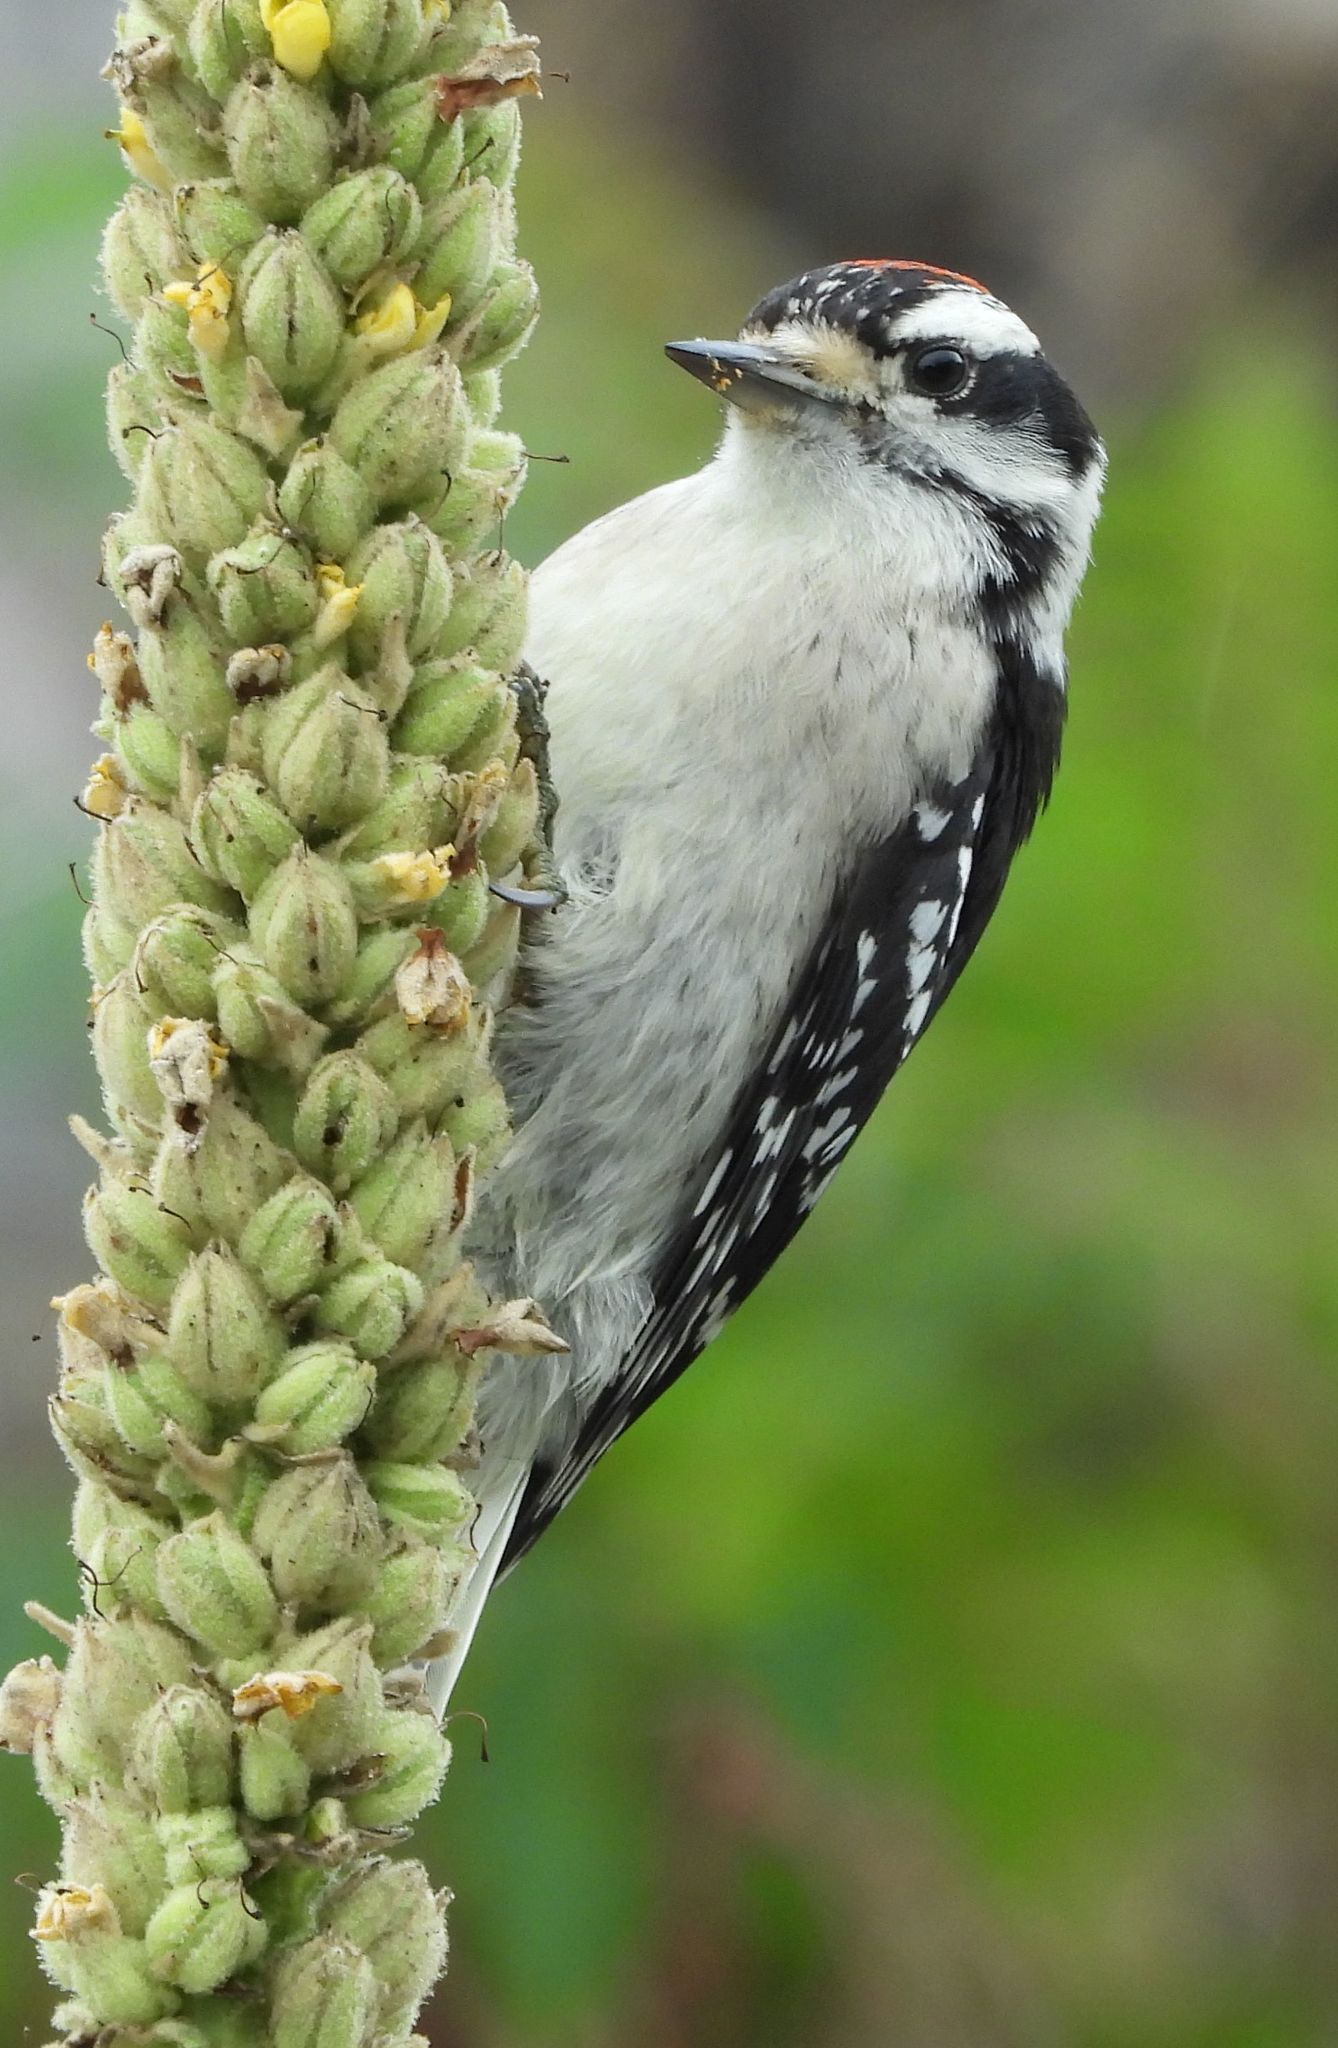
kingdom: Animalia
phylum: Chordata
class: Aves
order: Piciformes
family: Picidae
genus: Dryobates
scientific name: Dryobates pubescens
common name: Downy woodpecker
